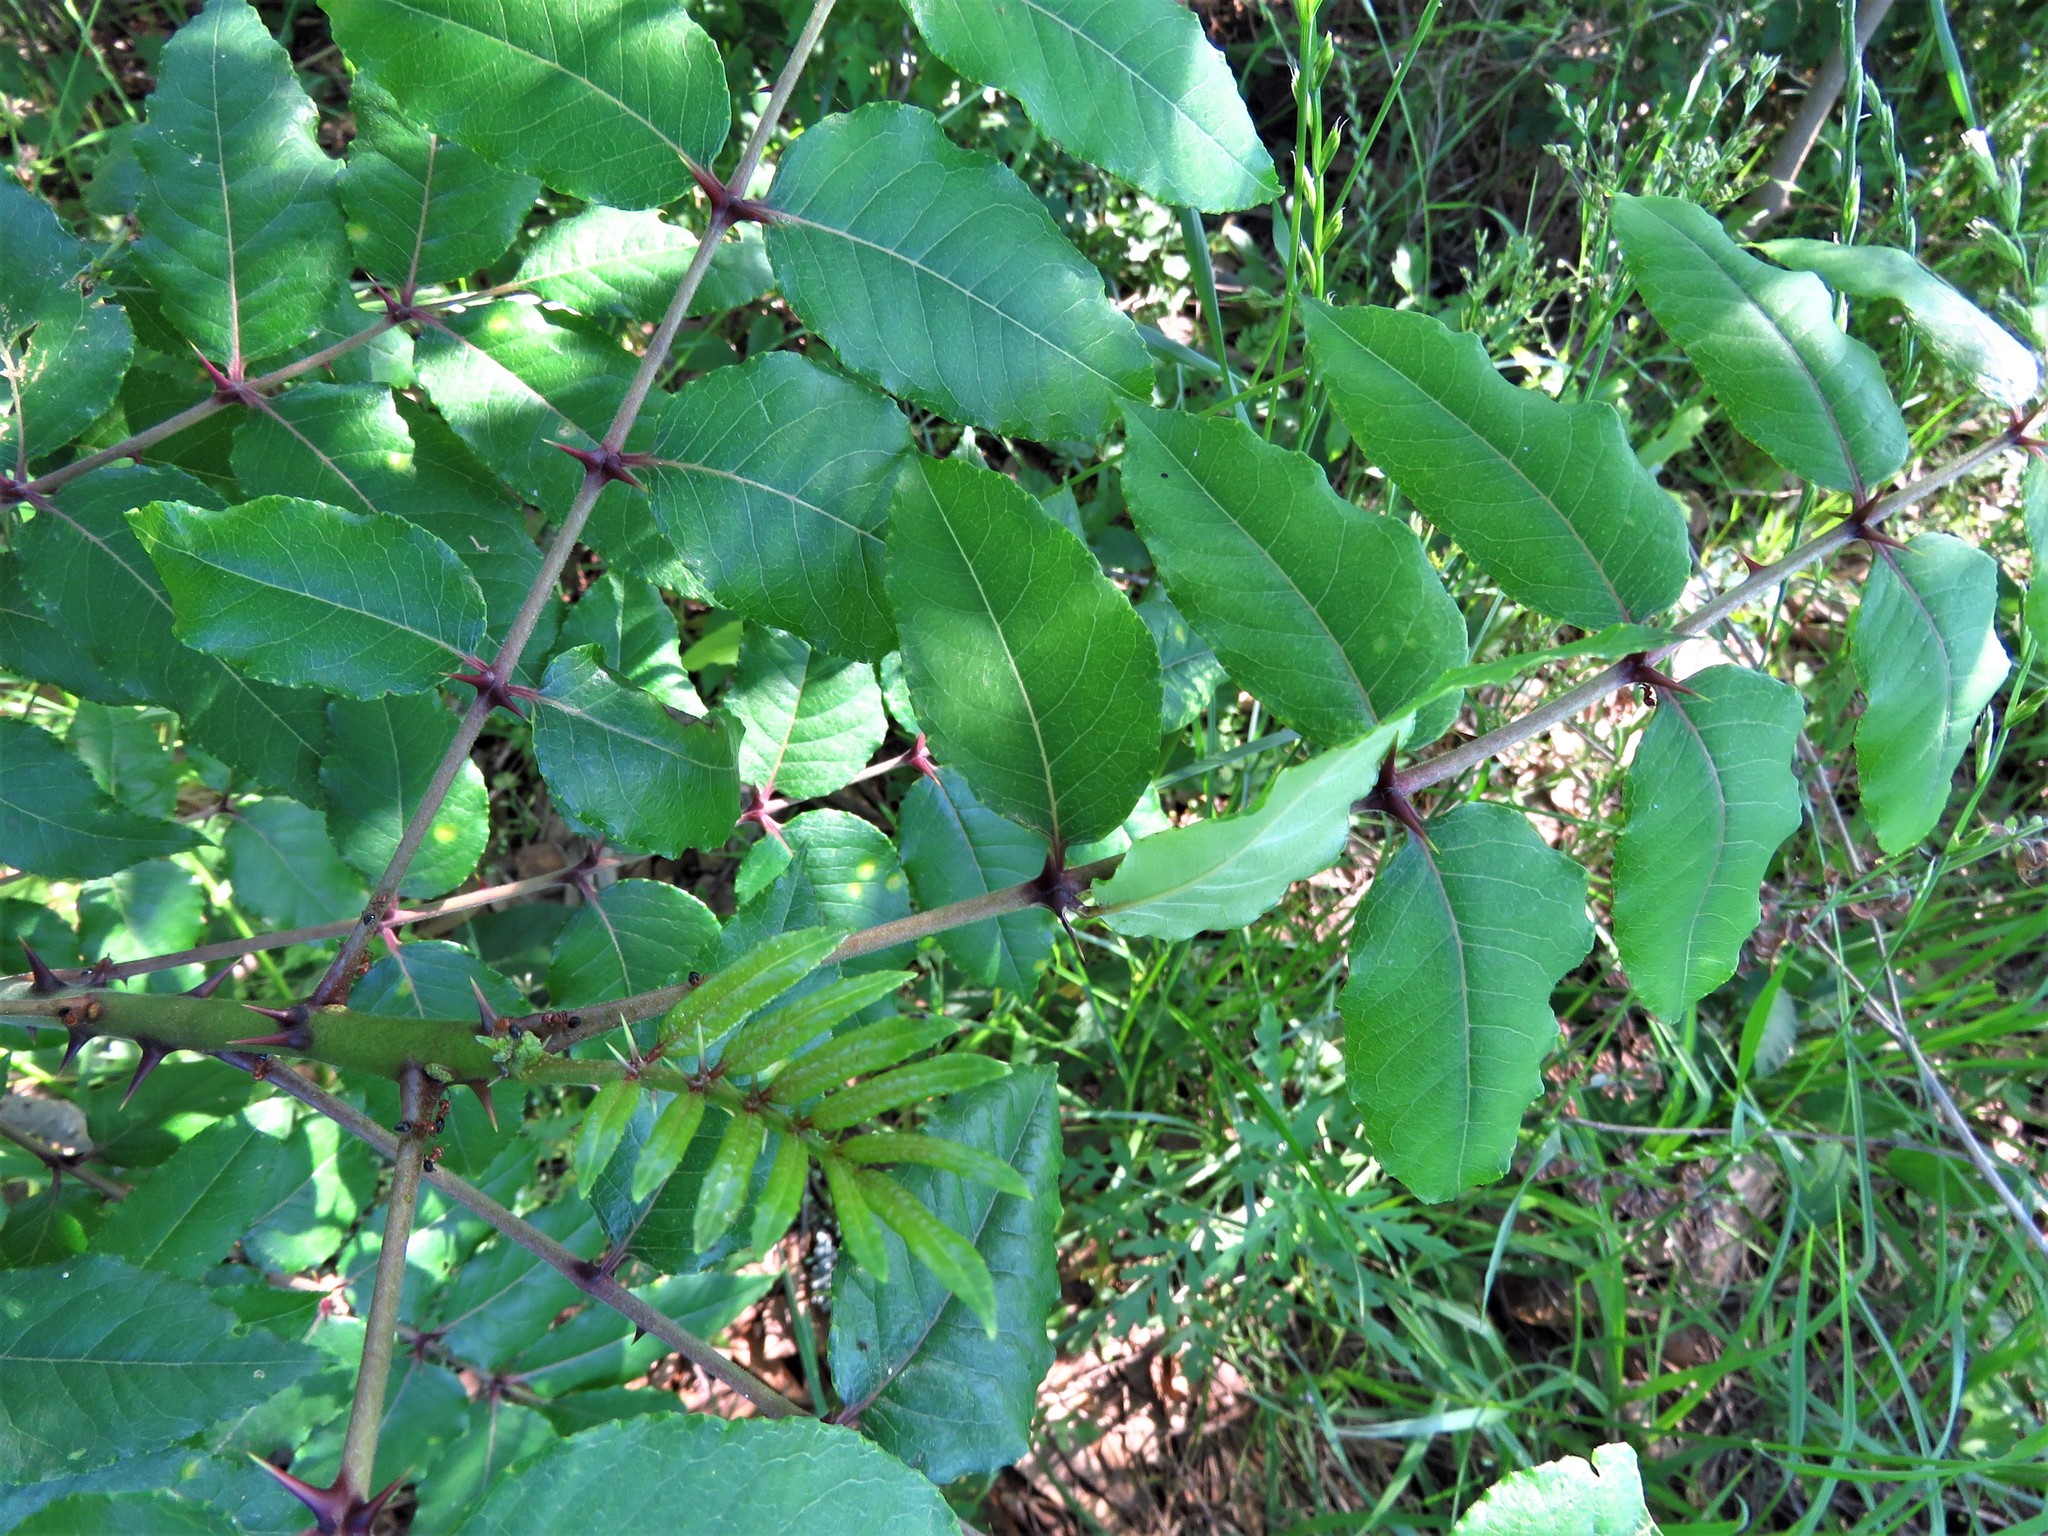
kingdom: Plantae
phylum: Tracheophyta
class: Magnoliopsida
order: Sapindales
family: Rutaceae
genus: Zanthoxylum
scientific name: Zanthoxylum clava-herculis
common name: Hercules'-club
